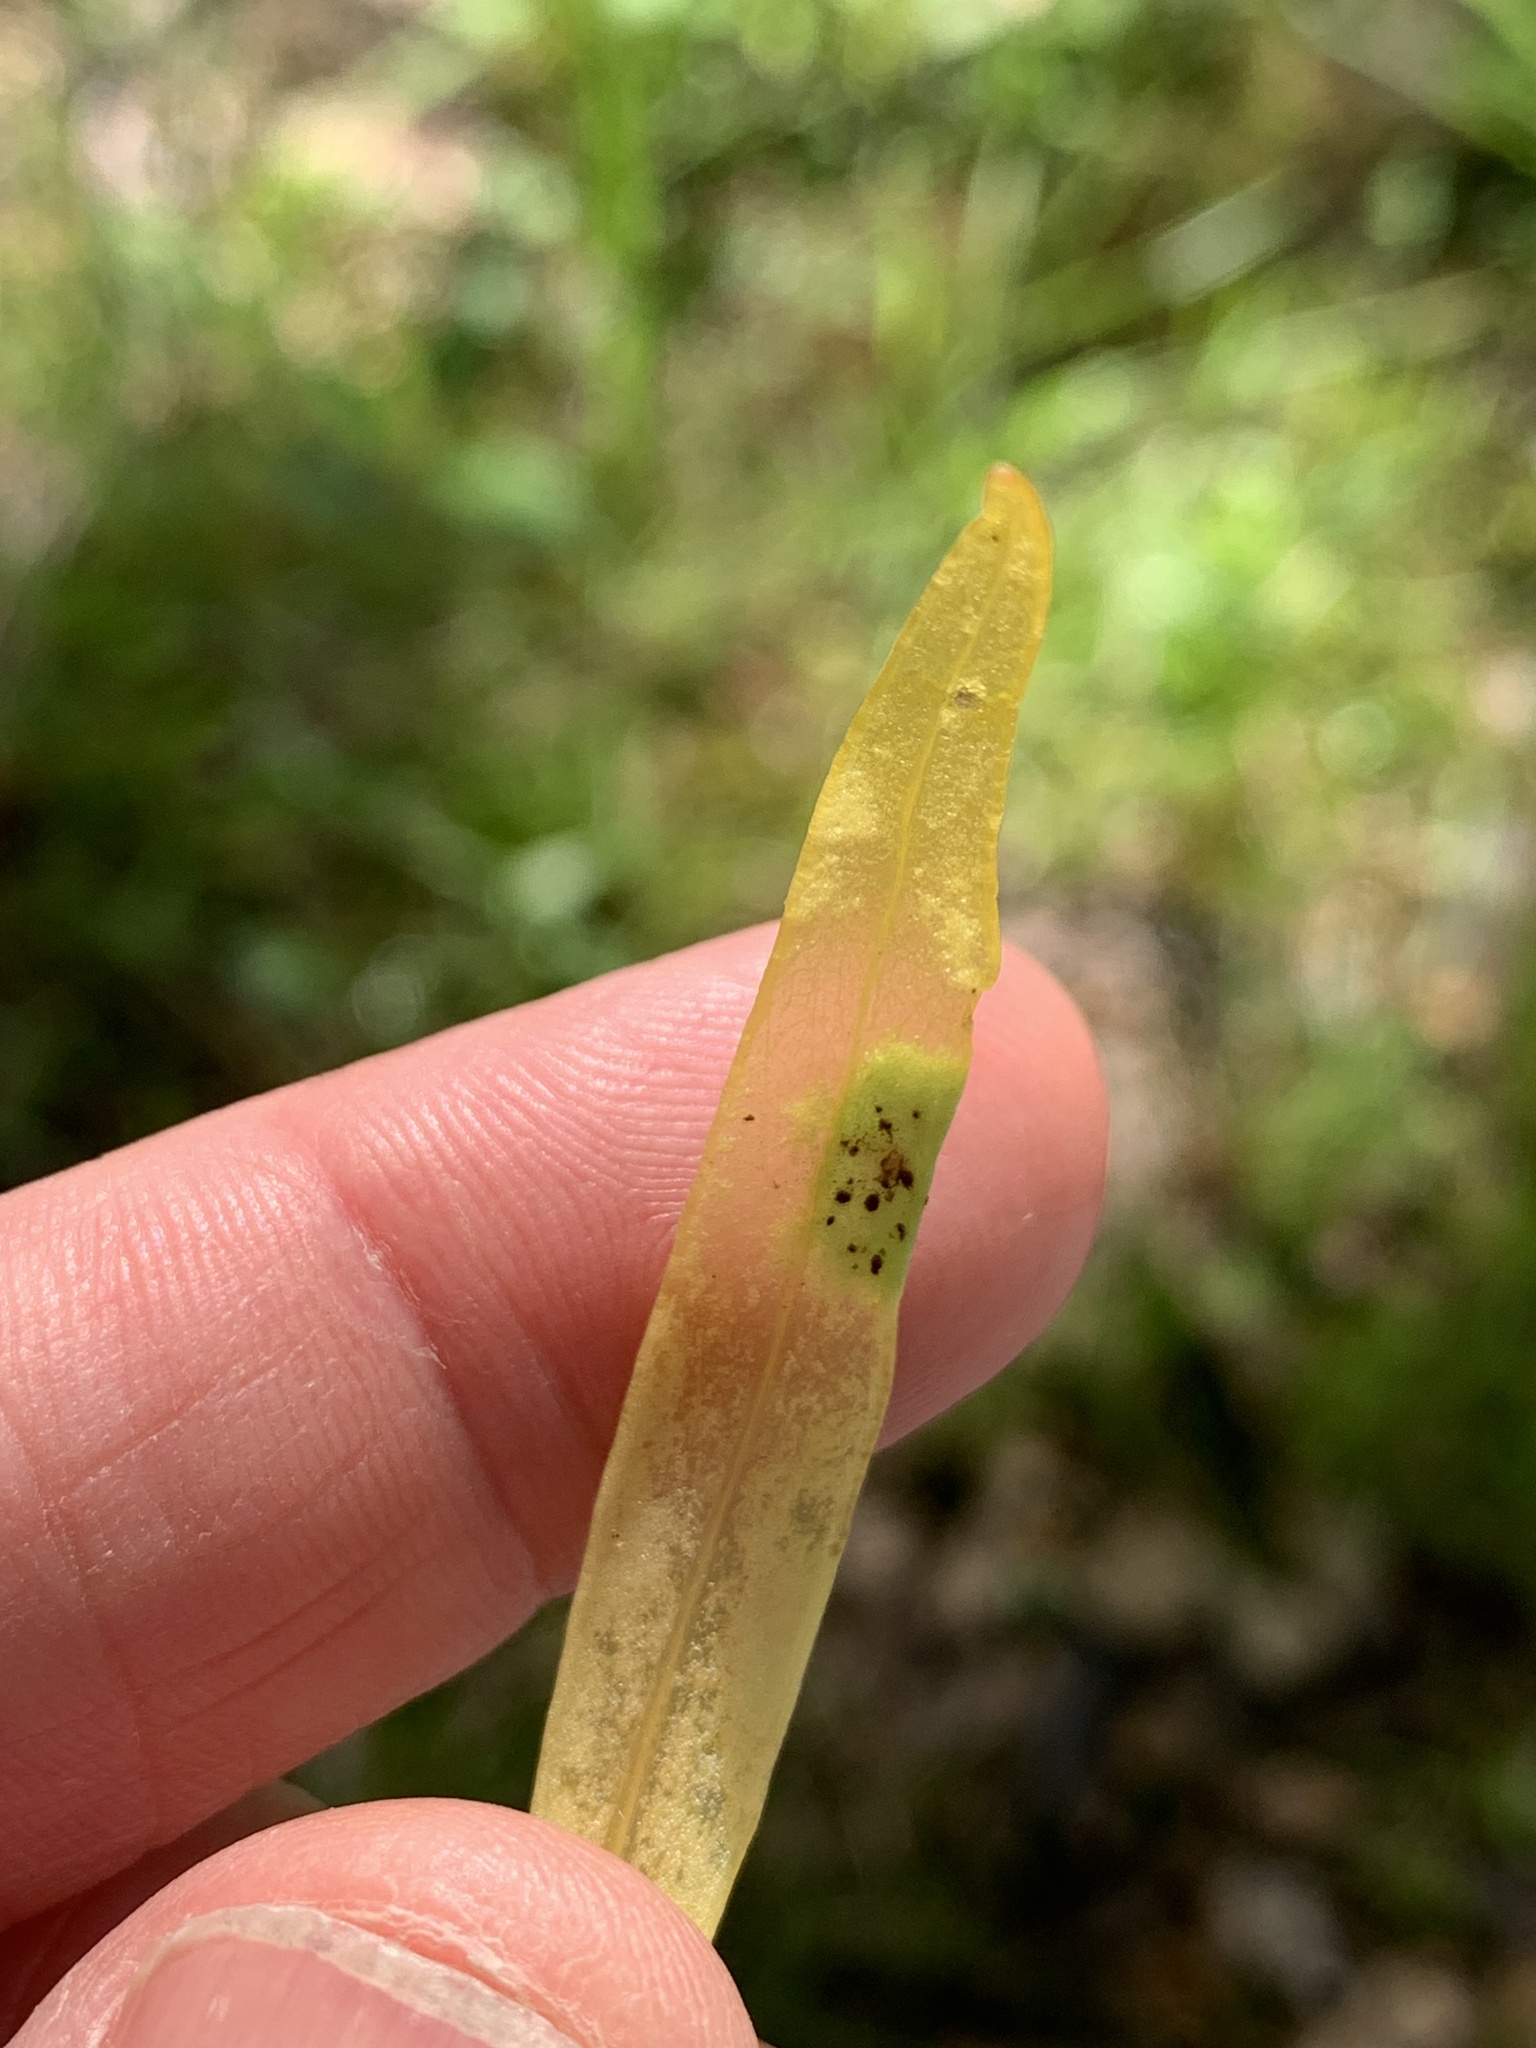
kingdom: Fungi
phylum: Basidiomycota
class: Pucciniomycetes
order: Pucciniales
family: Pucciniaceae
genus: Puccinia
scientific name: Puccinia mariae-wilsoniae
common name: Spring beauty rust
